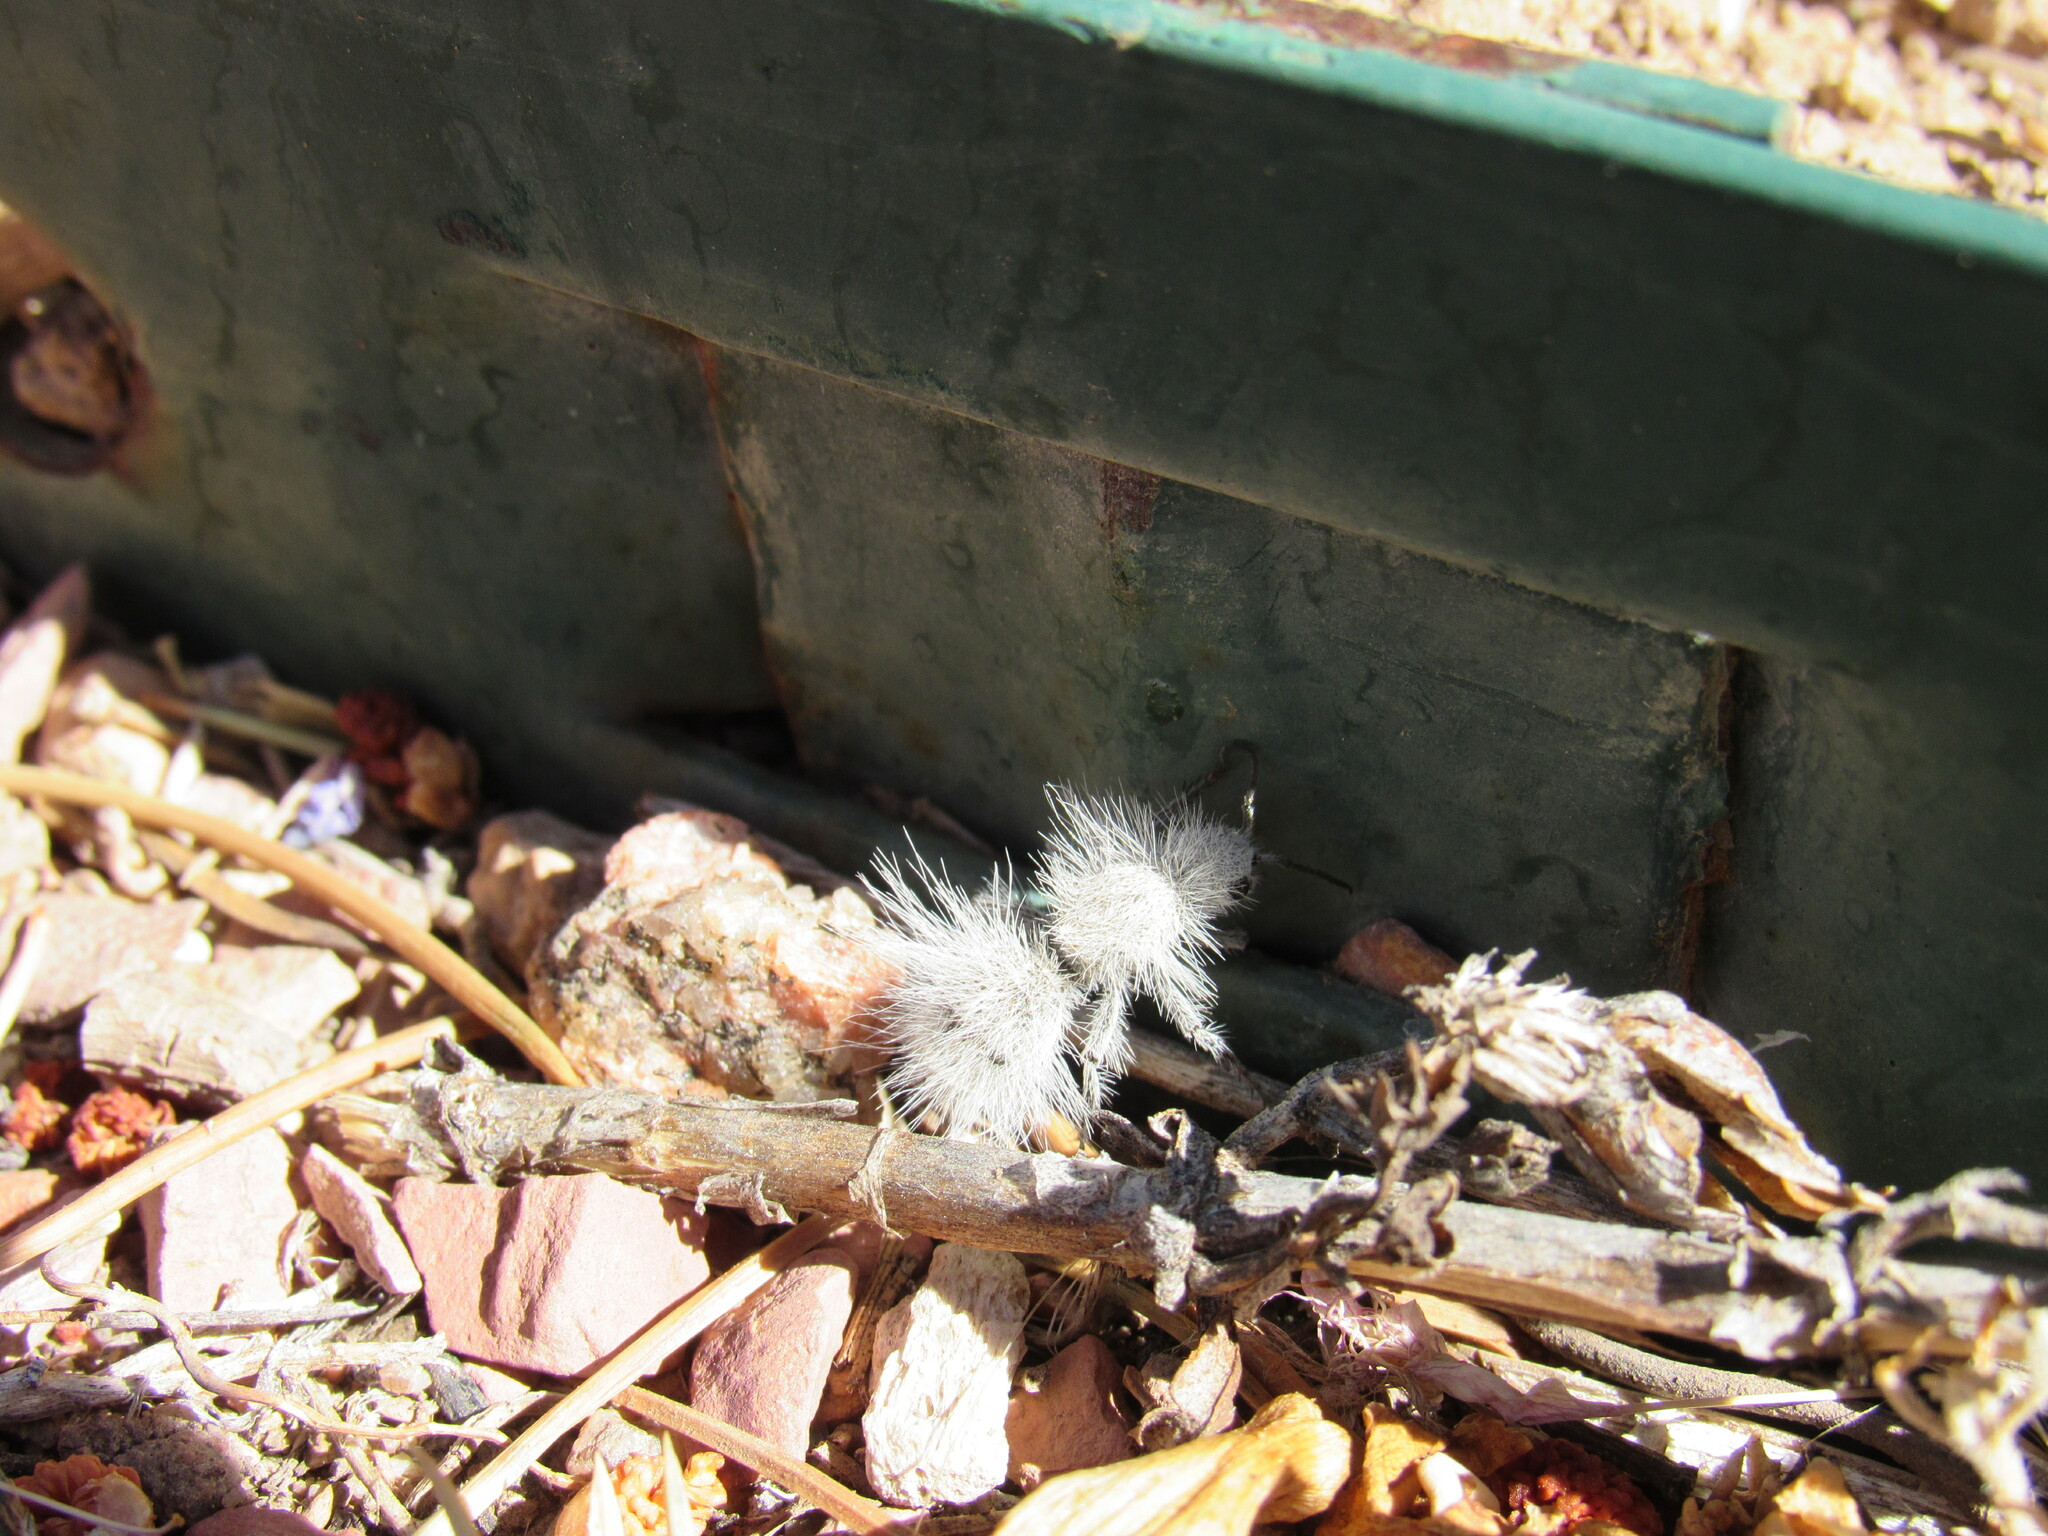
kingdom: Animalia
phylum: Arthropoda
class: Insecta
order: Hymenoptera
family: Mutillidae
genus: Dasymutilla
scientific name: Dasymutilla pseudopappus
